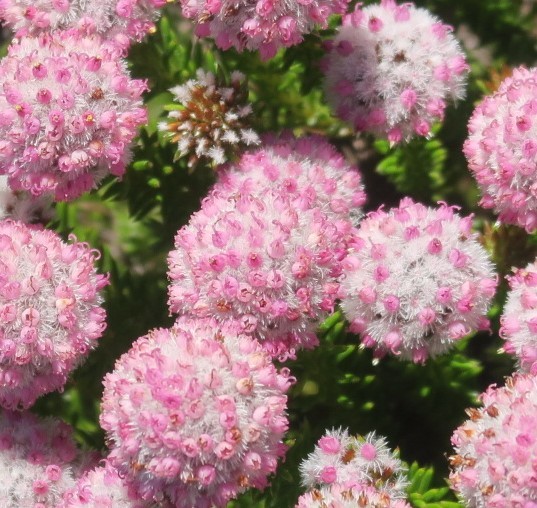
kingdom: Plantae
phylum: Tracheophyta
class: Magnoliopsida
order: Asterales
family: Asteraceae
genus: Stoebe
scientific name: Stoebe rosea
